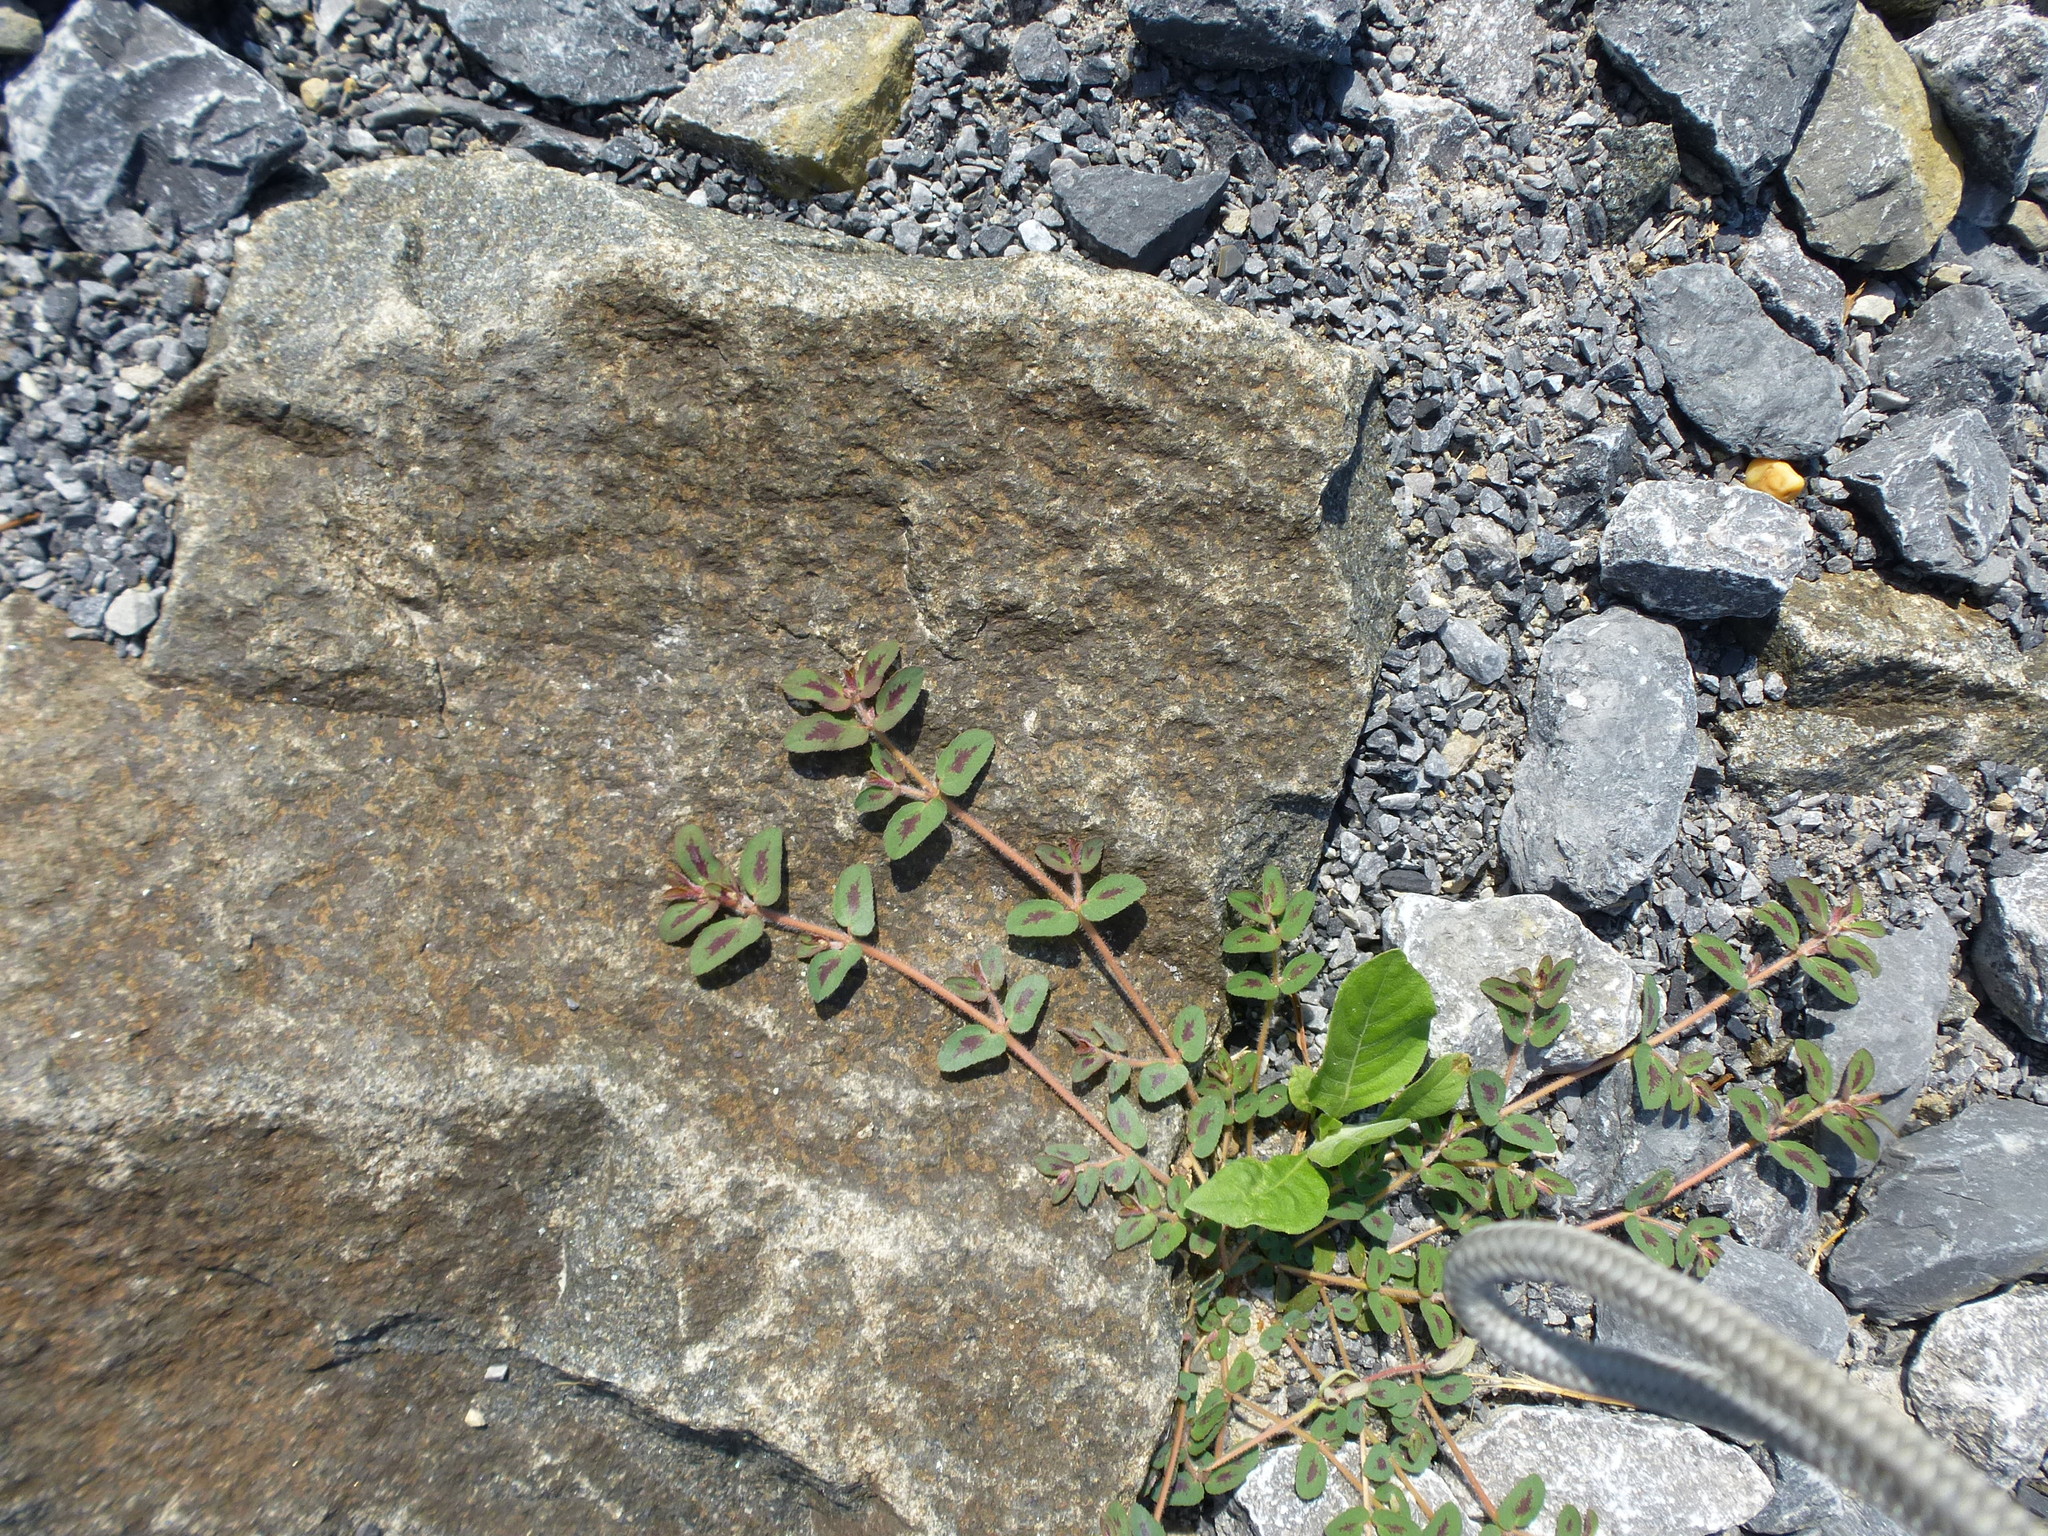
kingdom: Plantae
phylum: Tracheophyta
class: Magnoliopsida
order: Malpighiales
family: Euphorbiaceae
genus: Euphorbia
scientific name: Euphorbia maculata
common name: Spotted spurge
